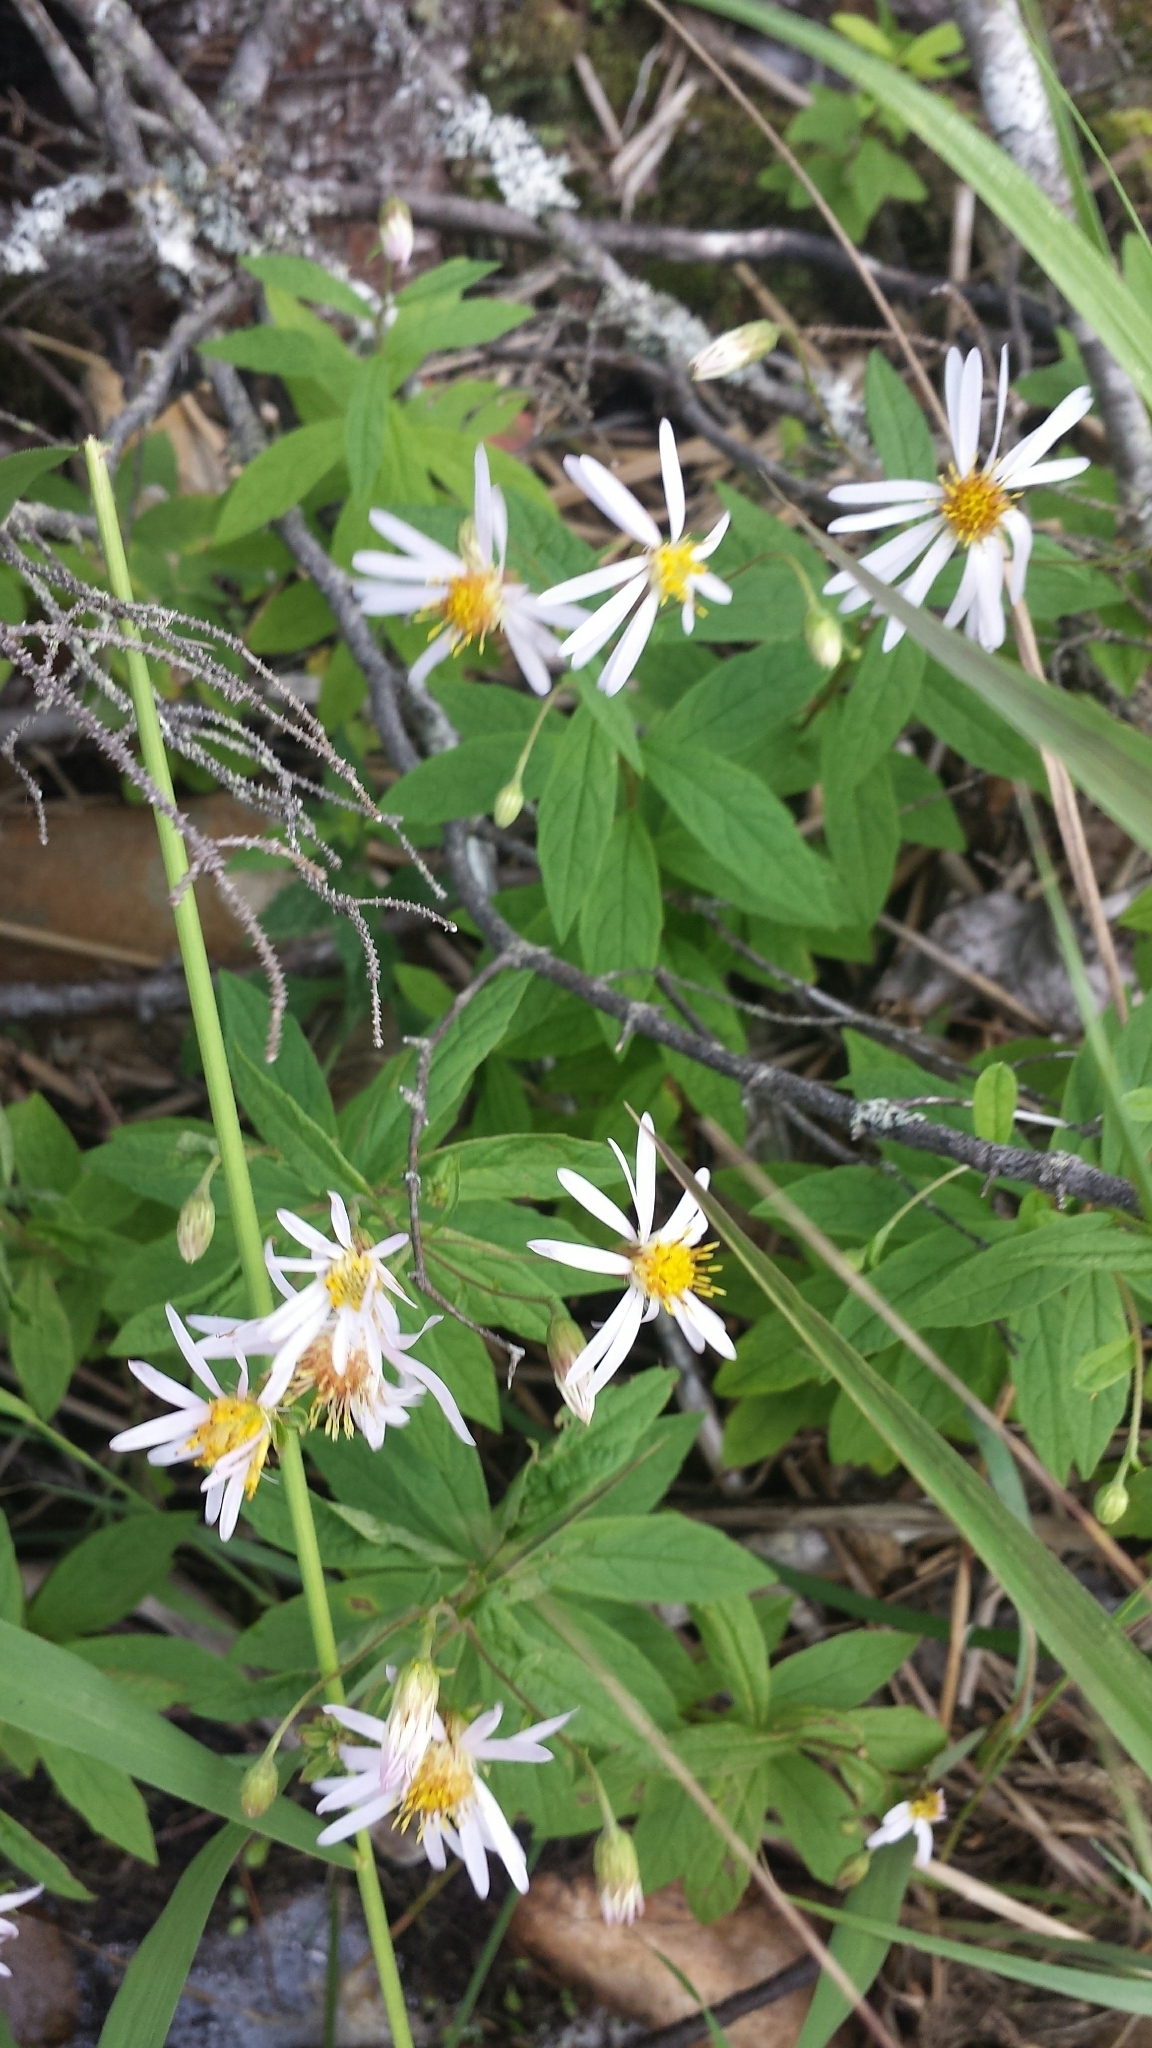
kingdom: Plantae
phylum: Tracheophyta
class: Magnoliopsida
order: Asterales
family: Asteraceae
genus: Oclemena
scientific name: Oclemena blakei
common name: Blake's aster
